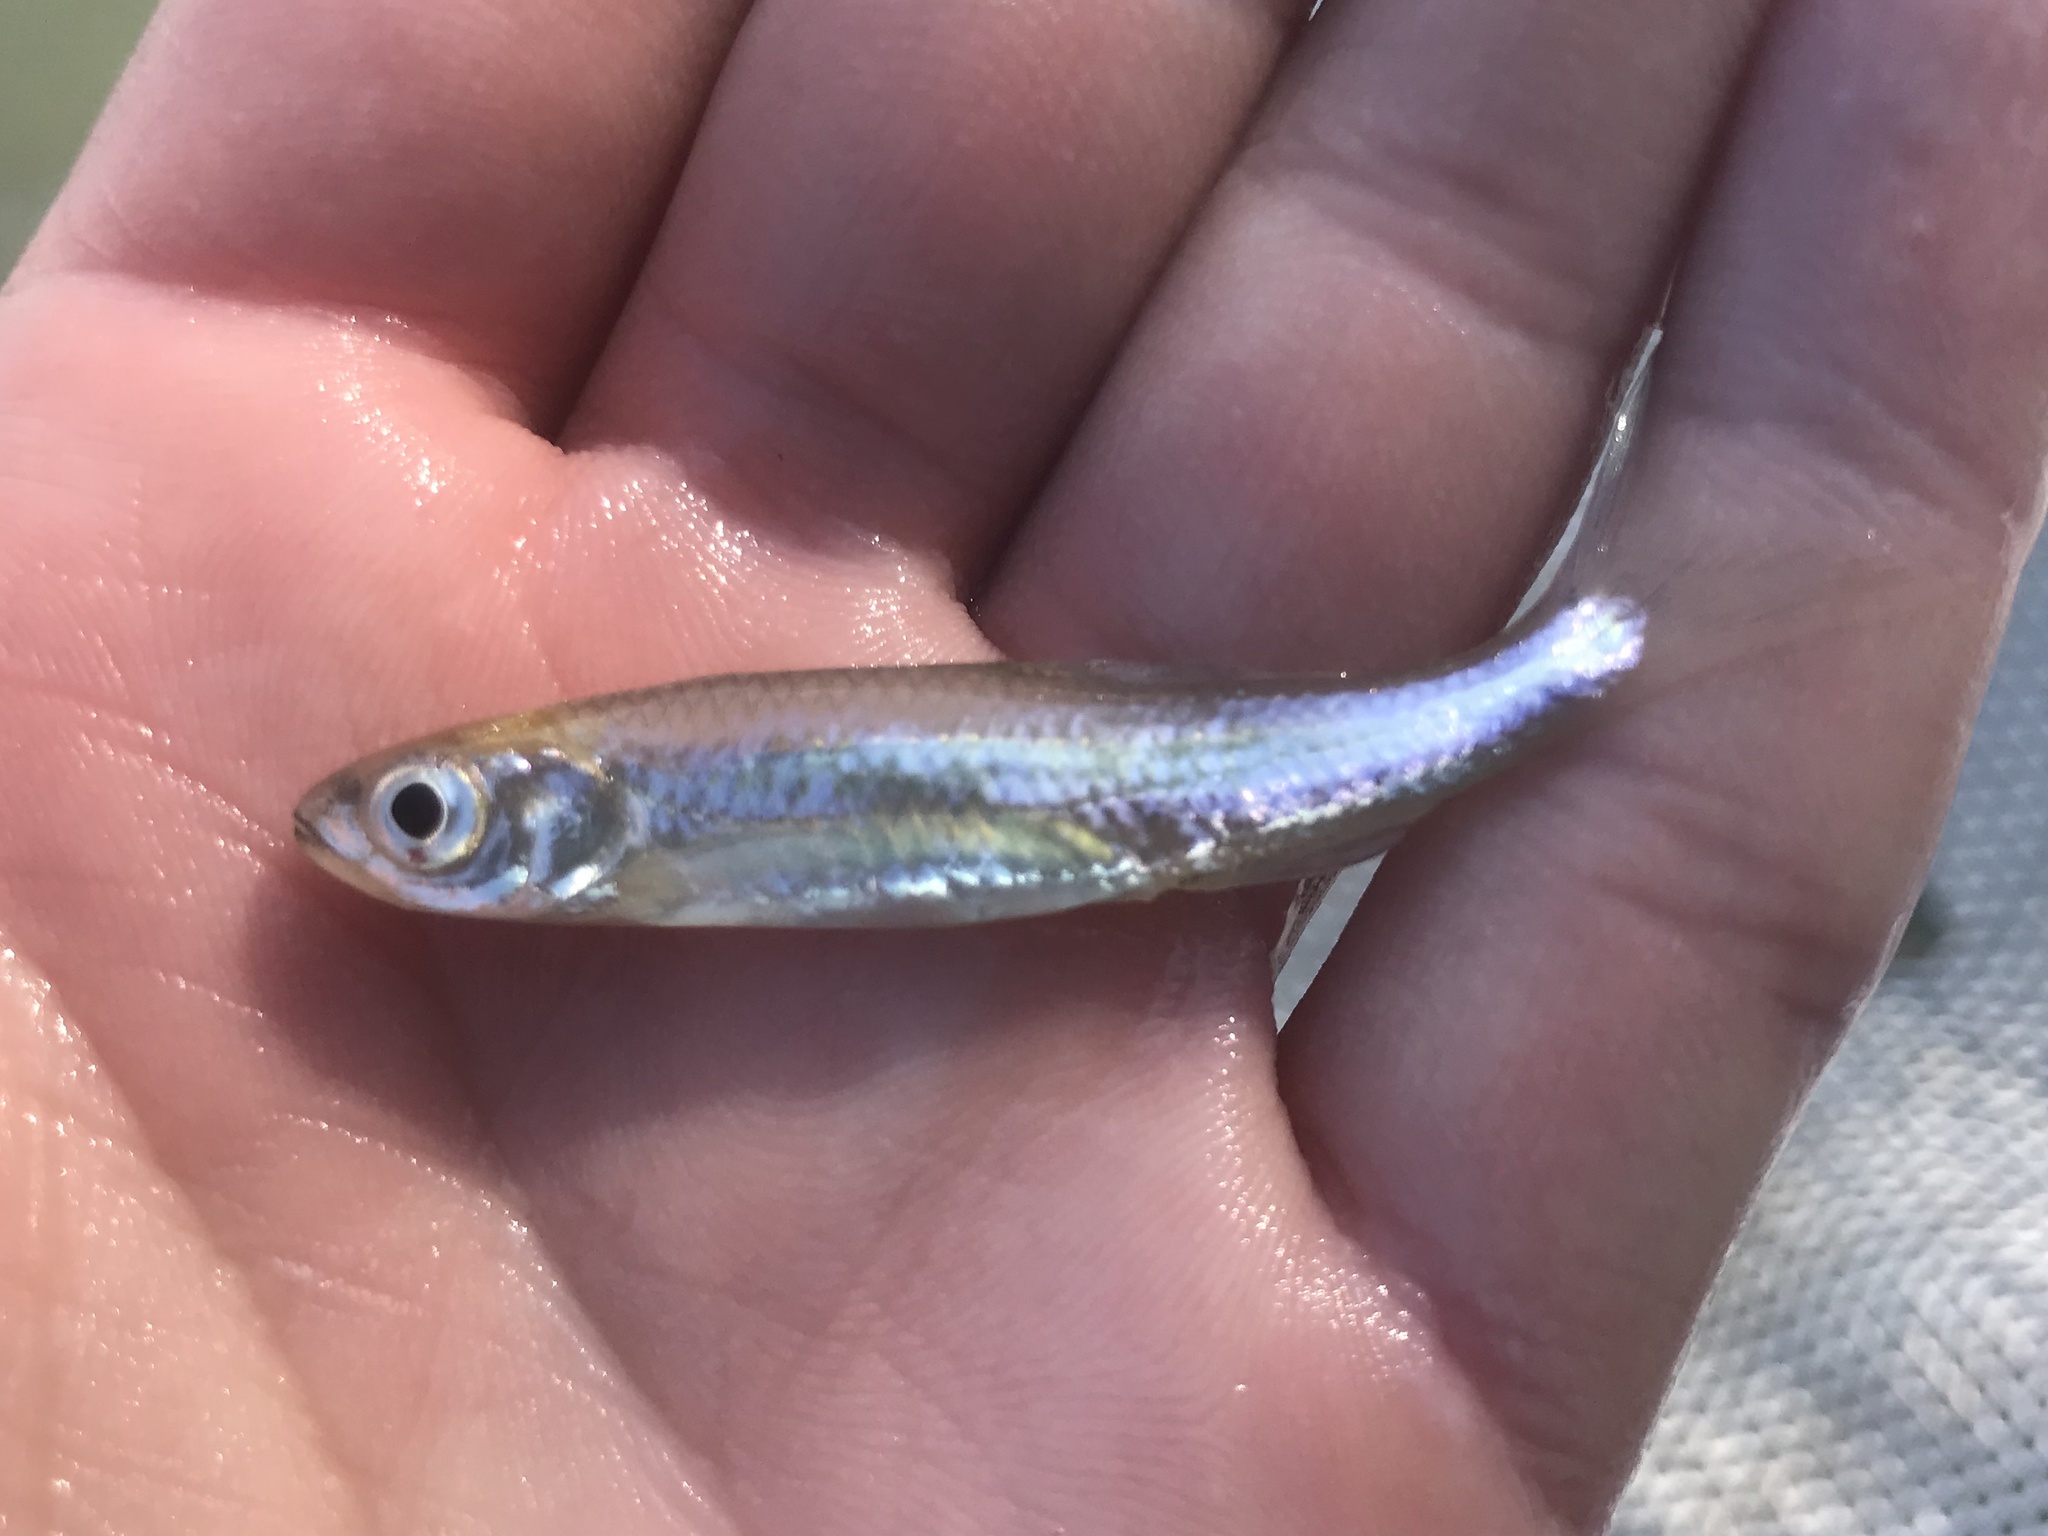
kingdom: Animalia
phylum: Chordata
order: Cypriniformes
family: Cyprinidae
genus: Notropis
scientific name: Notropis amabilis
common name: Texas shiner
